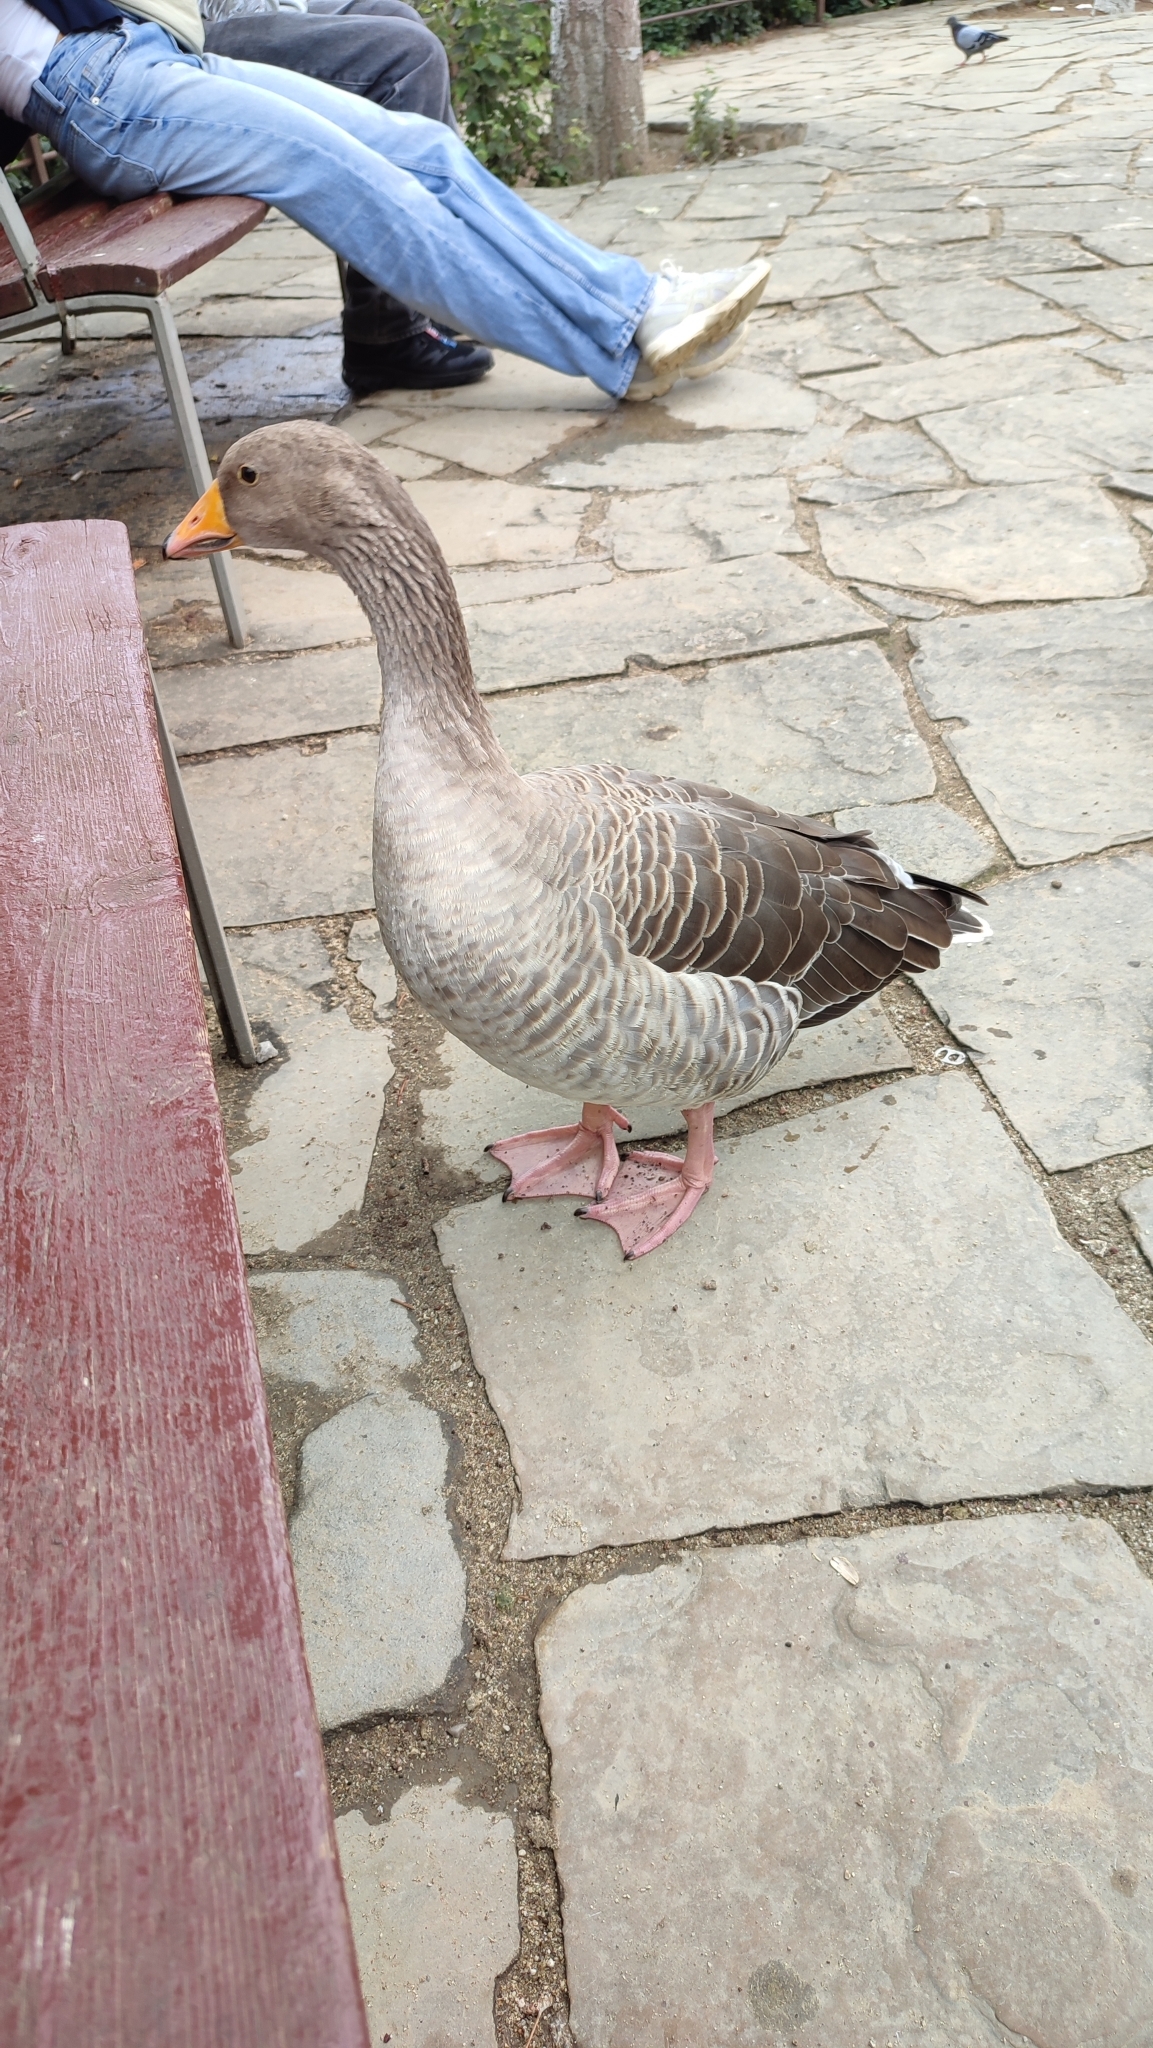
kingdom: Animalia
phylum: Chordata
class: Aves
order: Anseriformes
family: Anatidae
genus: Anser
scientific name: Anser anser
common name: Greylag goose
